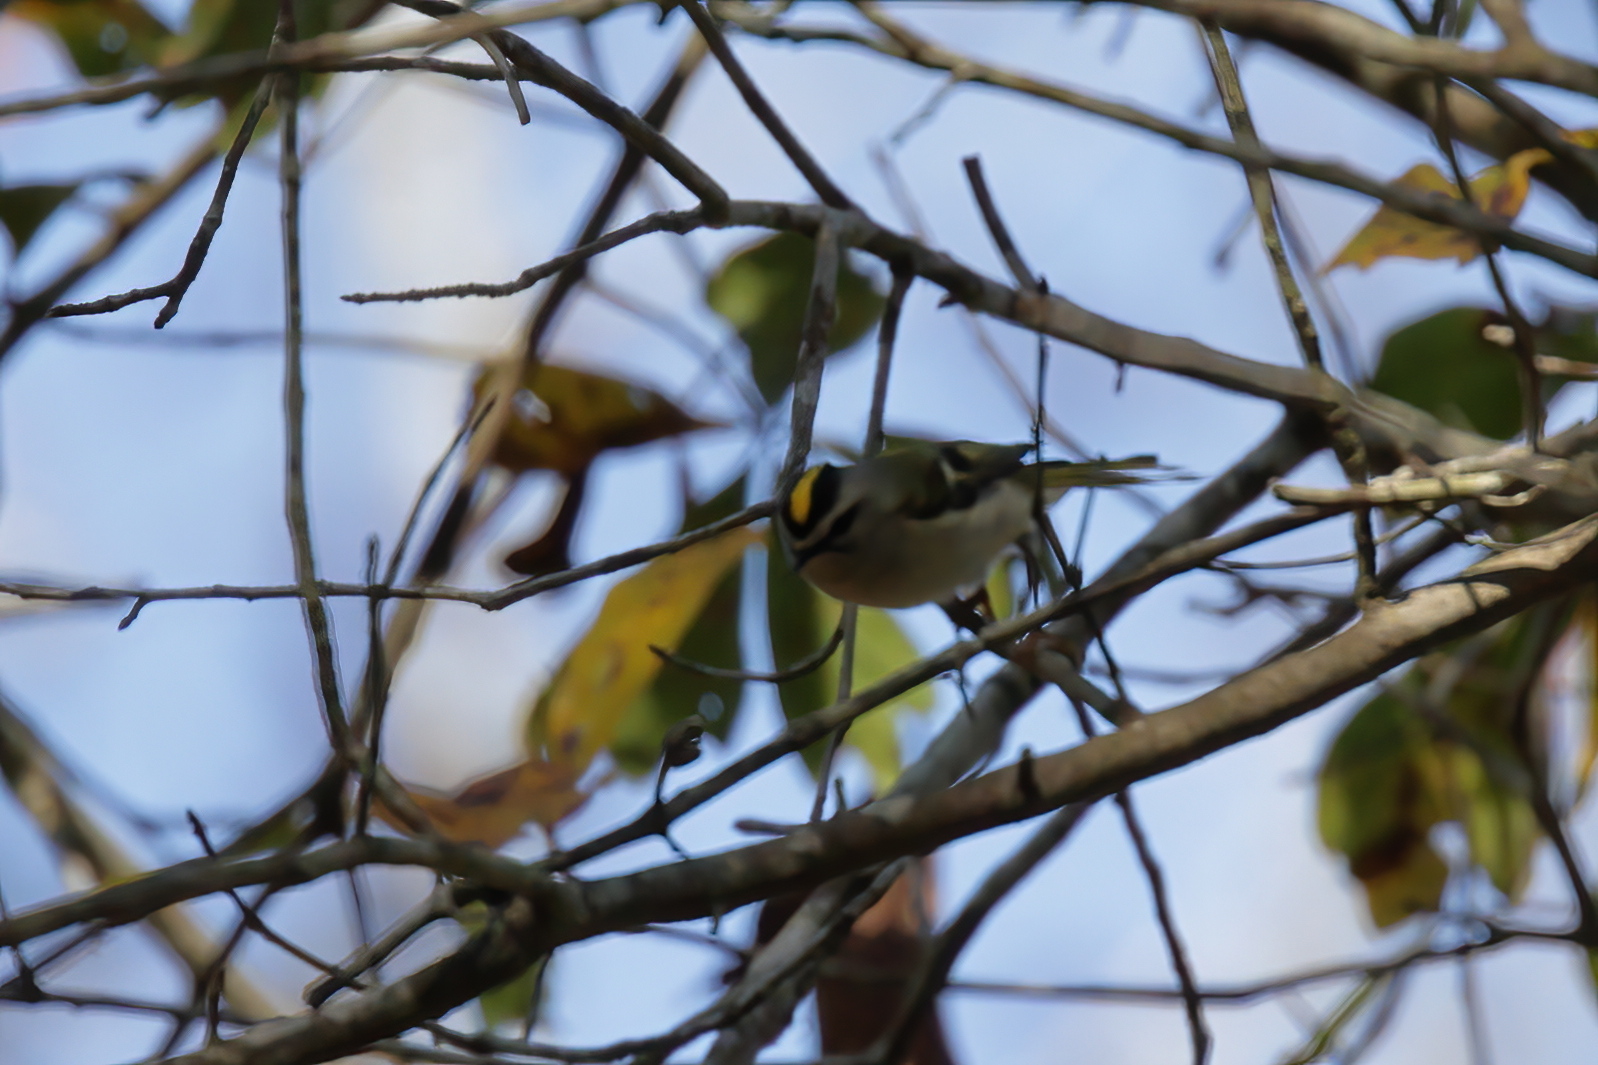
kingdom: Animalia
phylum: Chordata
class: Aves
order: Passeriformes
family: Regulidae
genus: Regulus
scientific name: Regulus satrapa
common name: Golden-crowned kinglet
